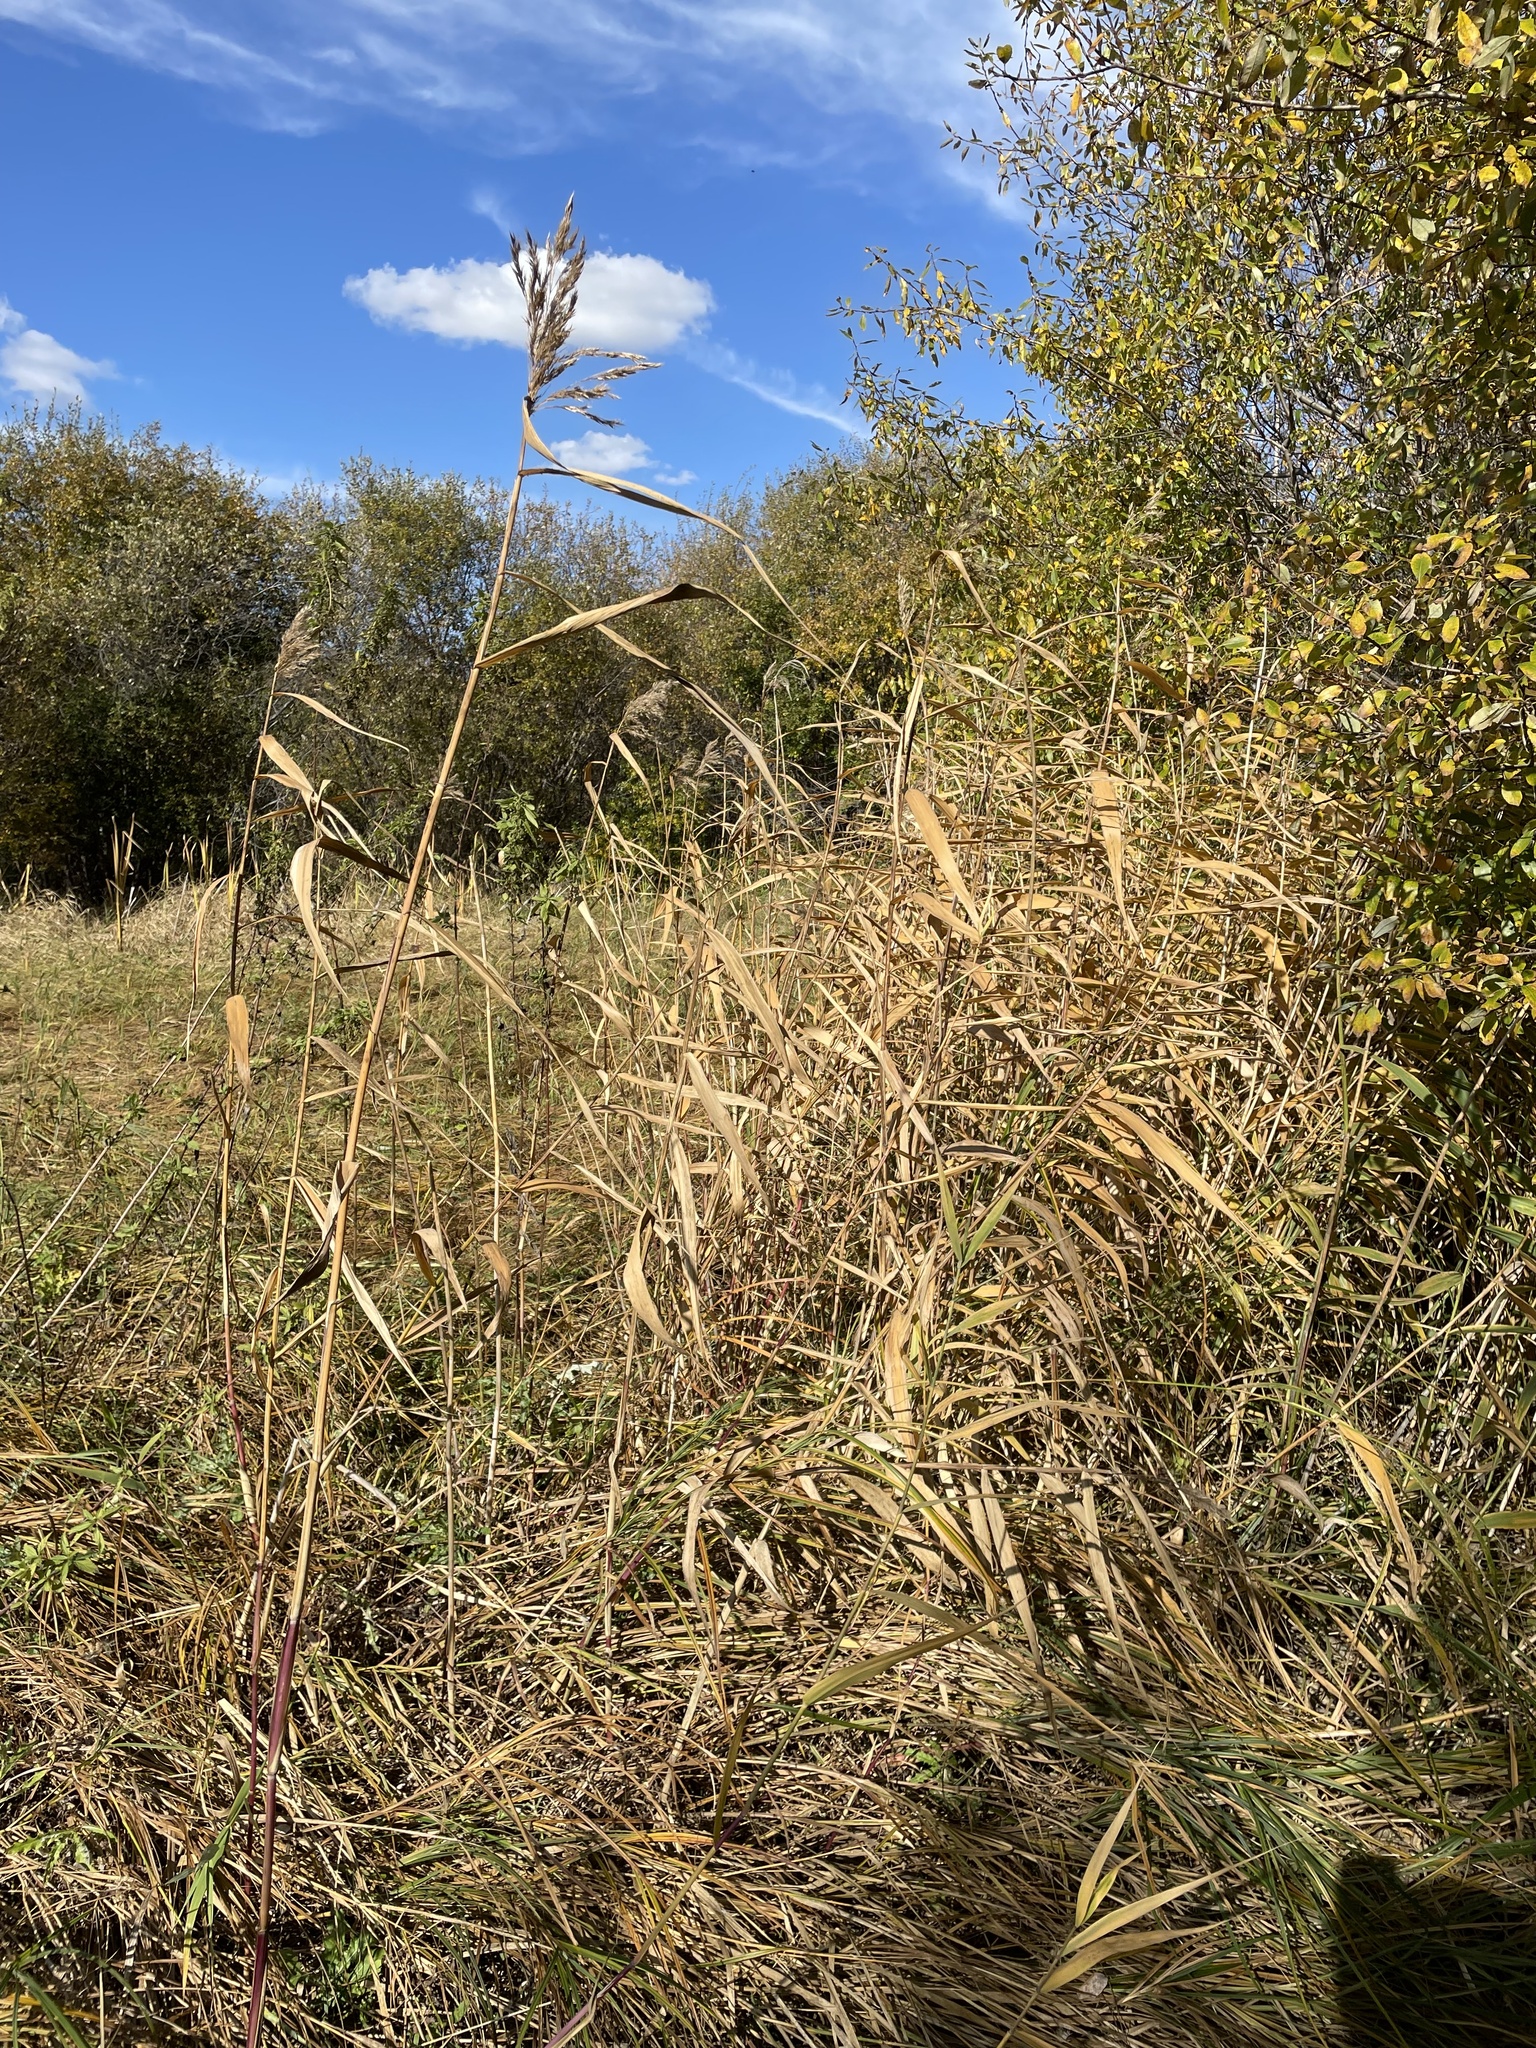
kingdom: Plantae
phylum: Tracheophyta
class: Liliopsida
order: Poales
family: Poaceae
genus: Phragmites
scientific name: Phragmites australis
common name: Common reed
